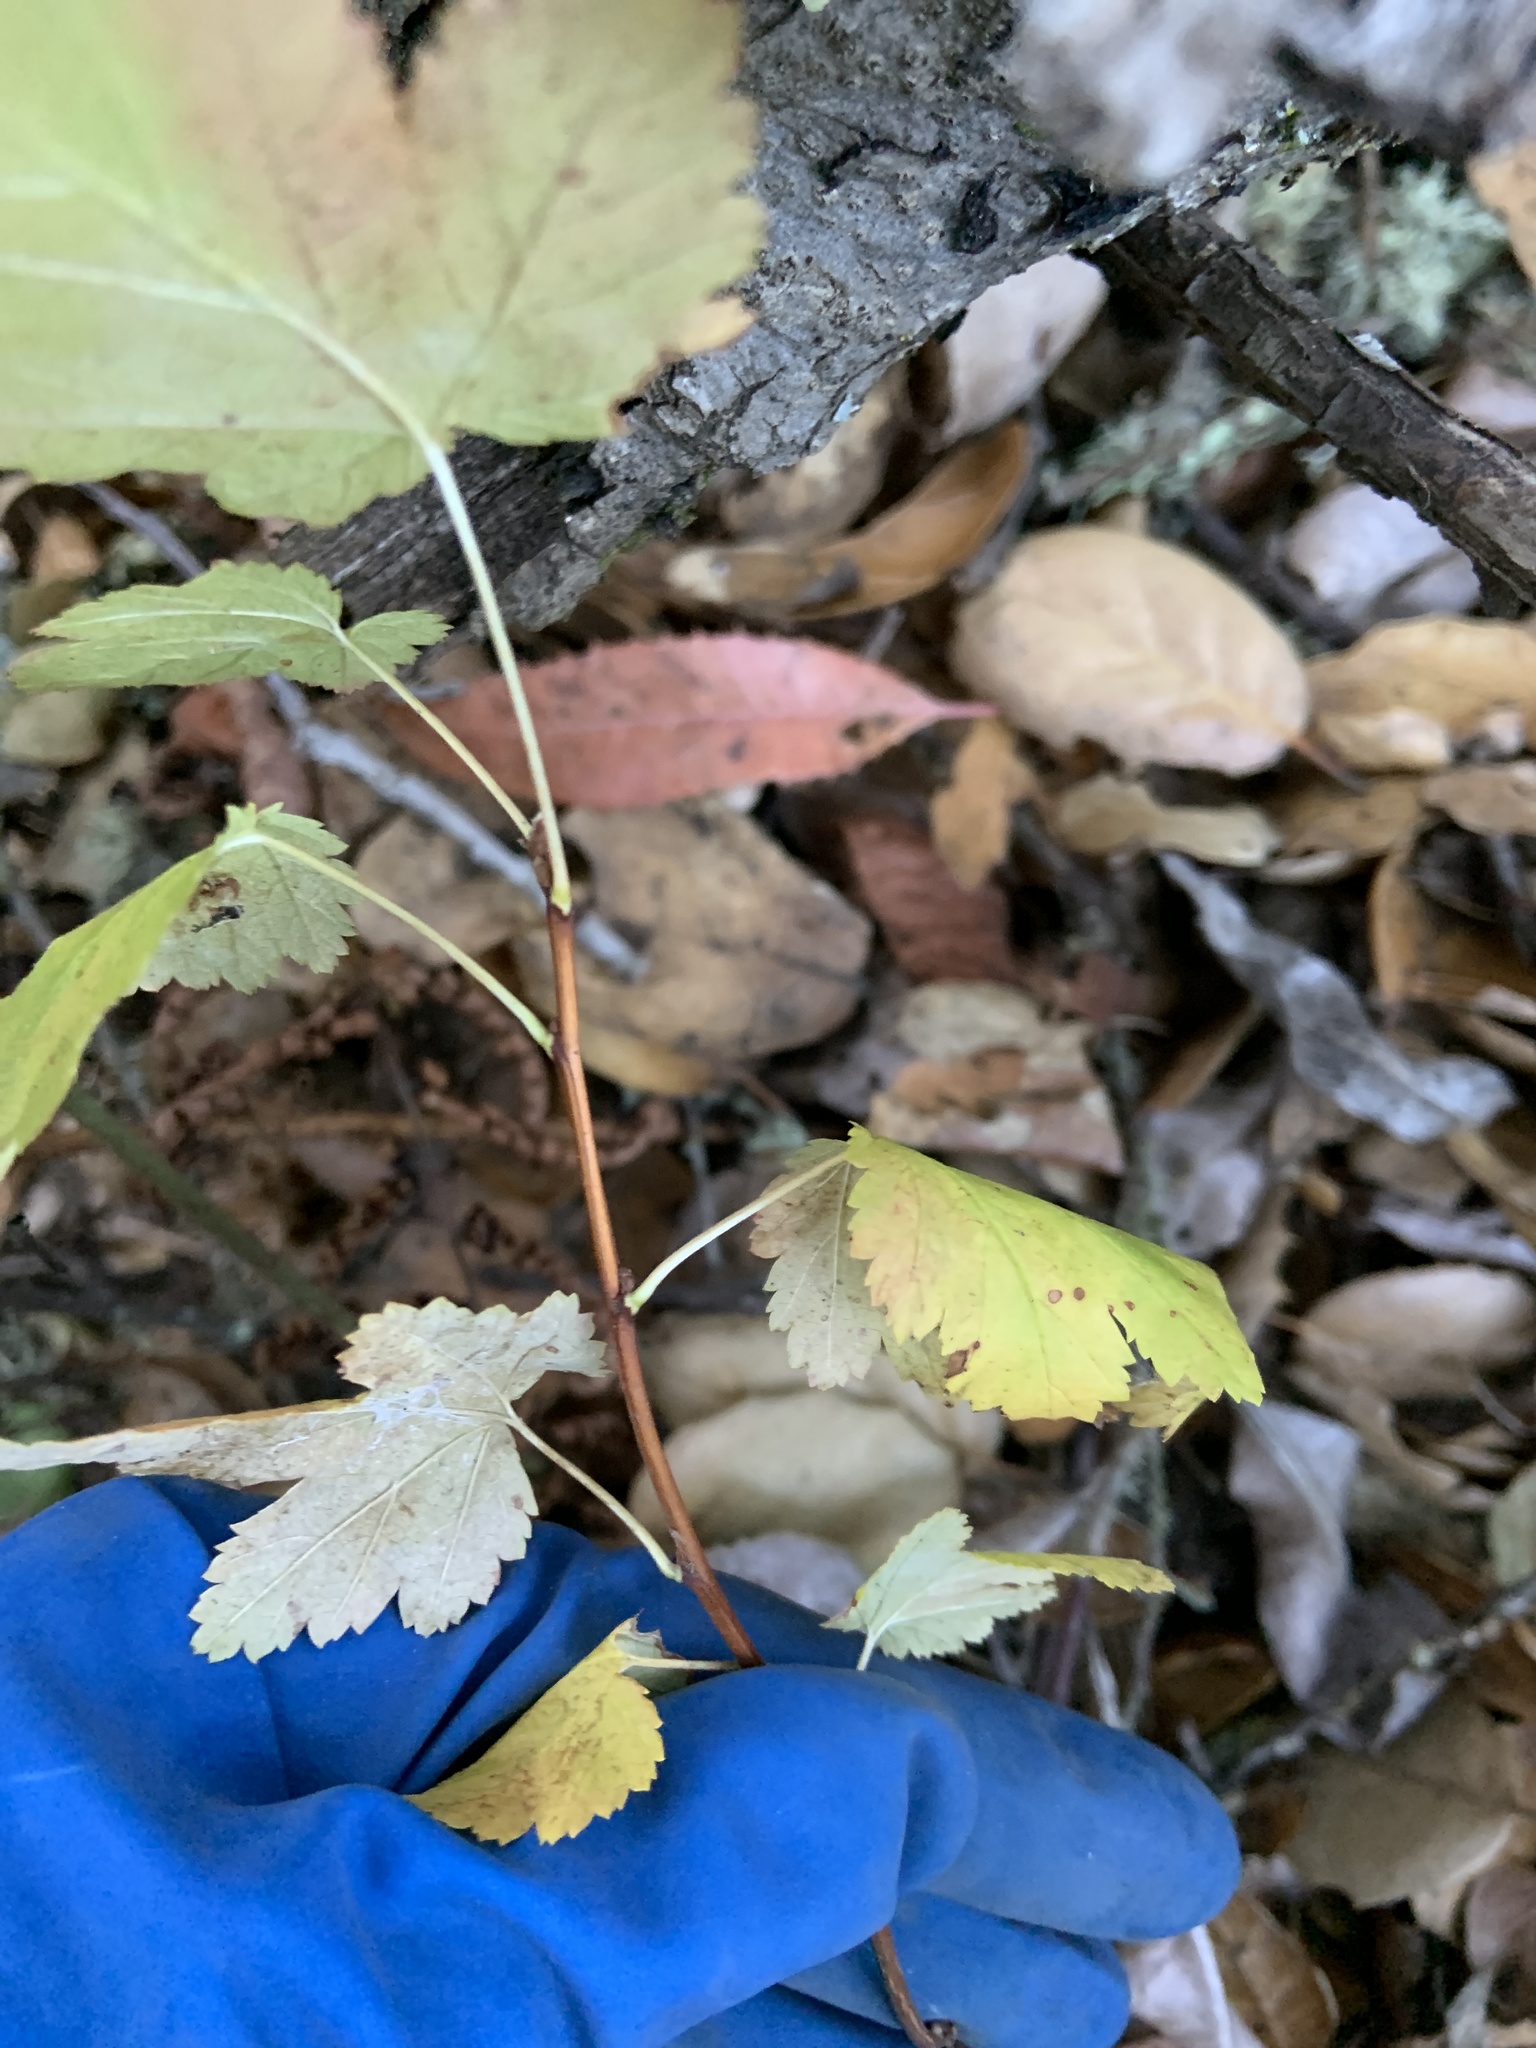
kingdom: Plantae
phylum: Tracheophyta
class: Magnoliopsida
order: Rosales
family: Rosaceae
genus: Physocarpus
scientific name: Physocarpus capitatus
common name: Pacific ninebark
